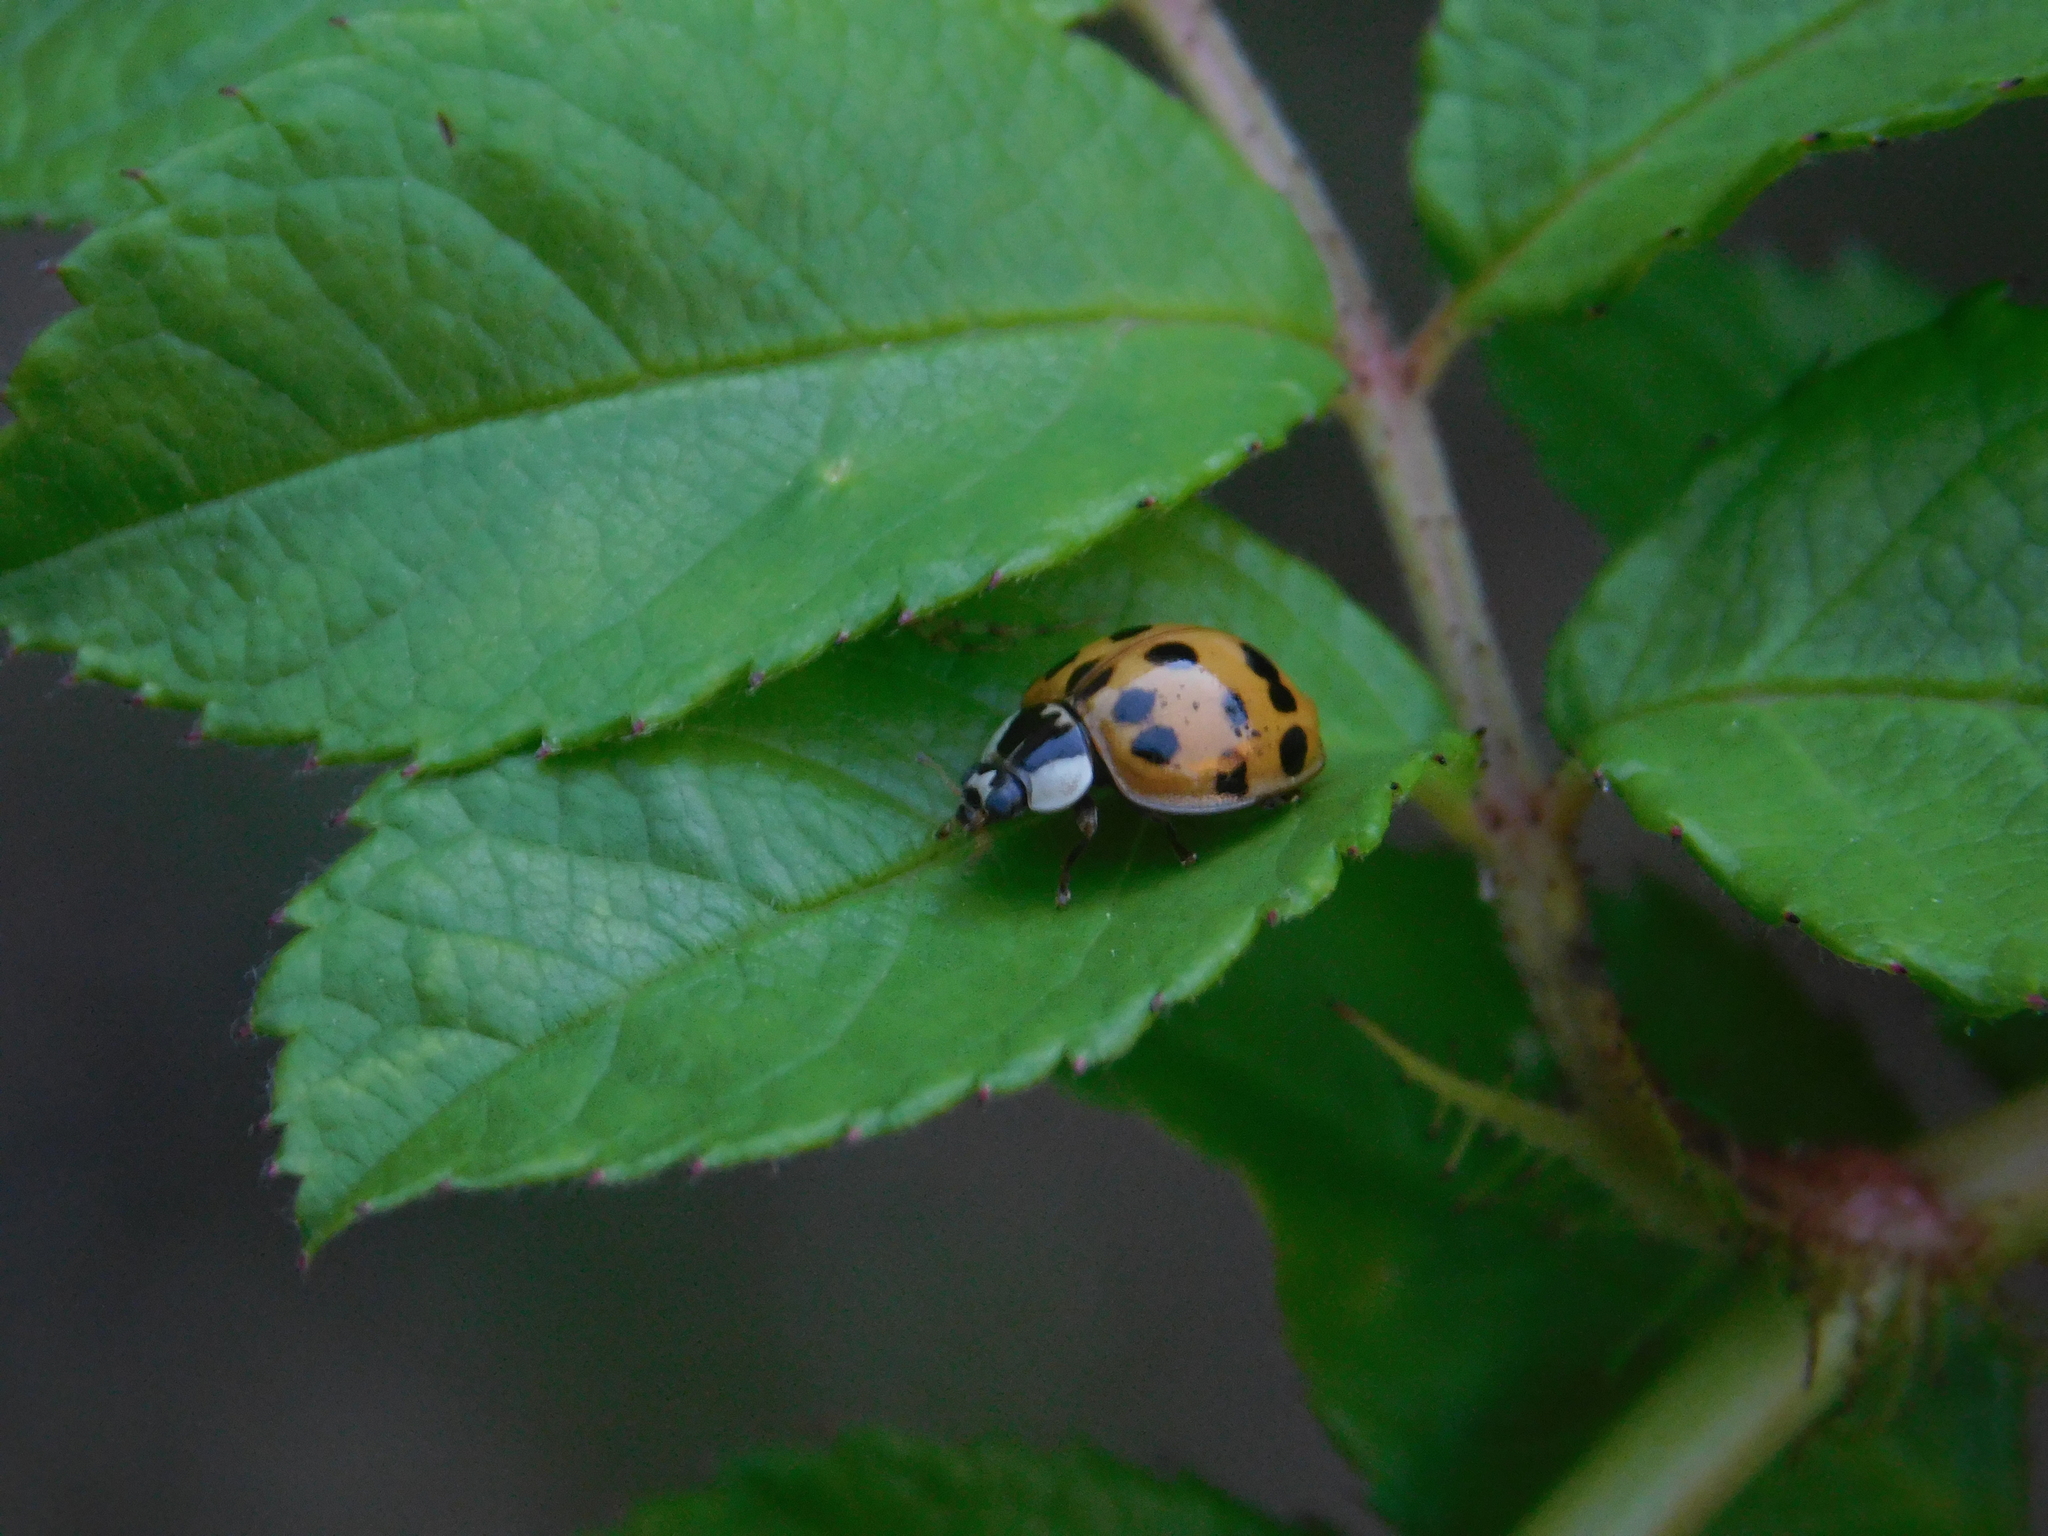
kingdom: Animalia
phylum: Arthropoda
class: Insecta
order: Coleoptera
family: Coccinellidae
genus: Harmonia
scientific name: Harmonia axyridis
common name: Harlequin ladybird
